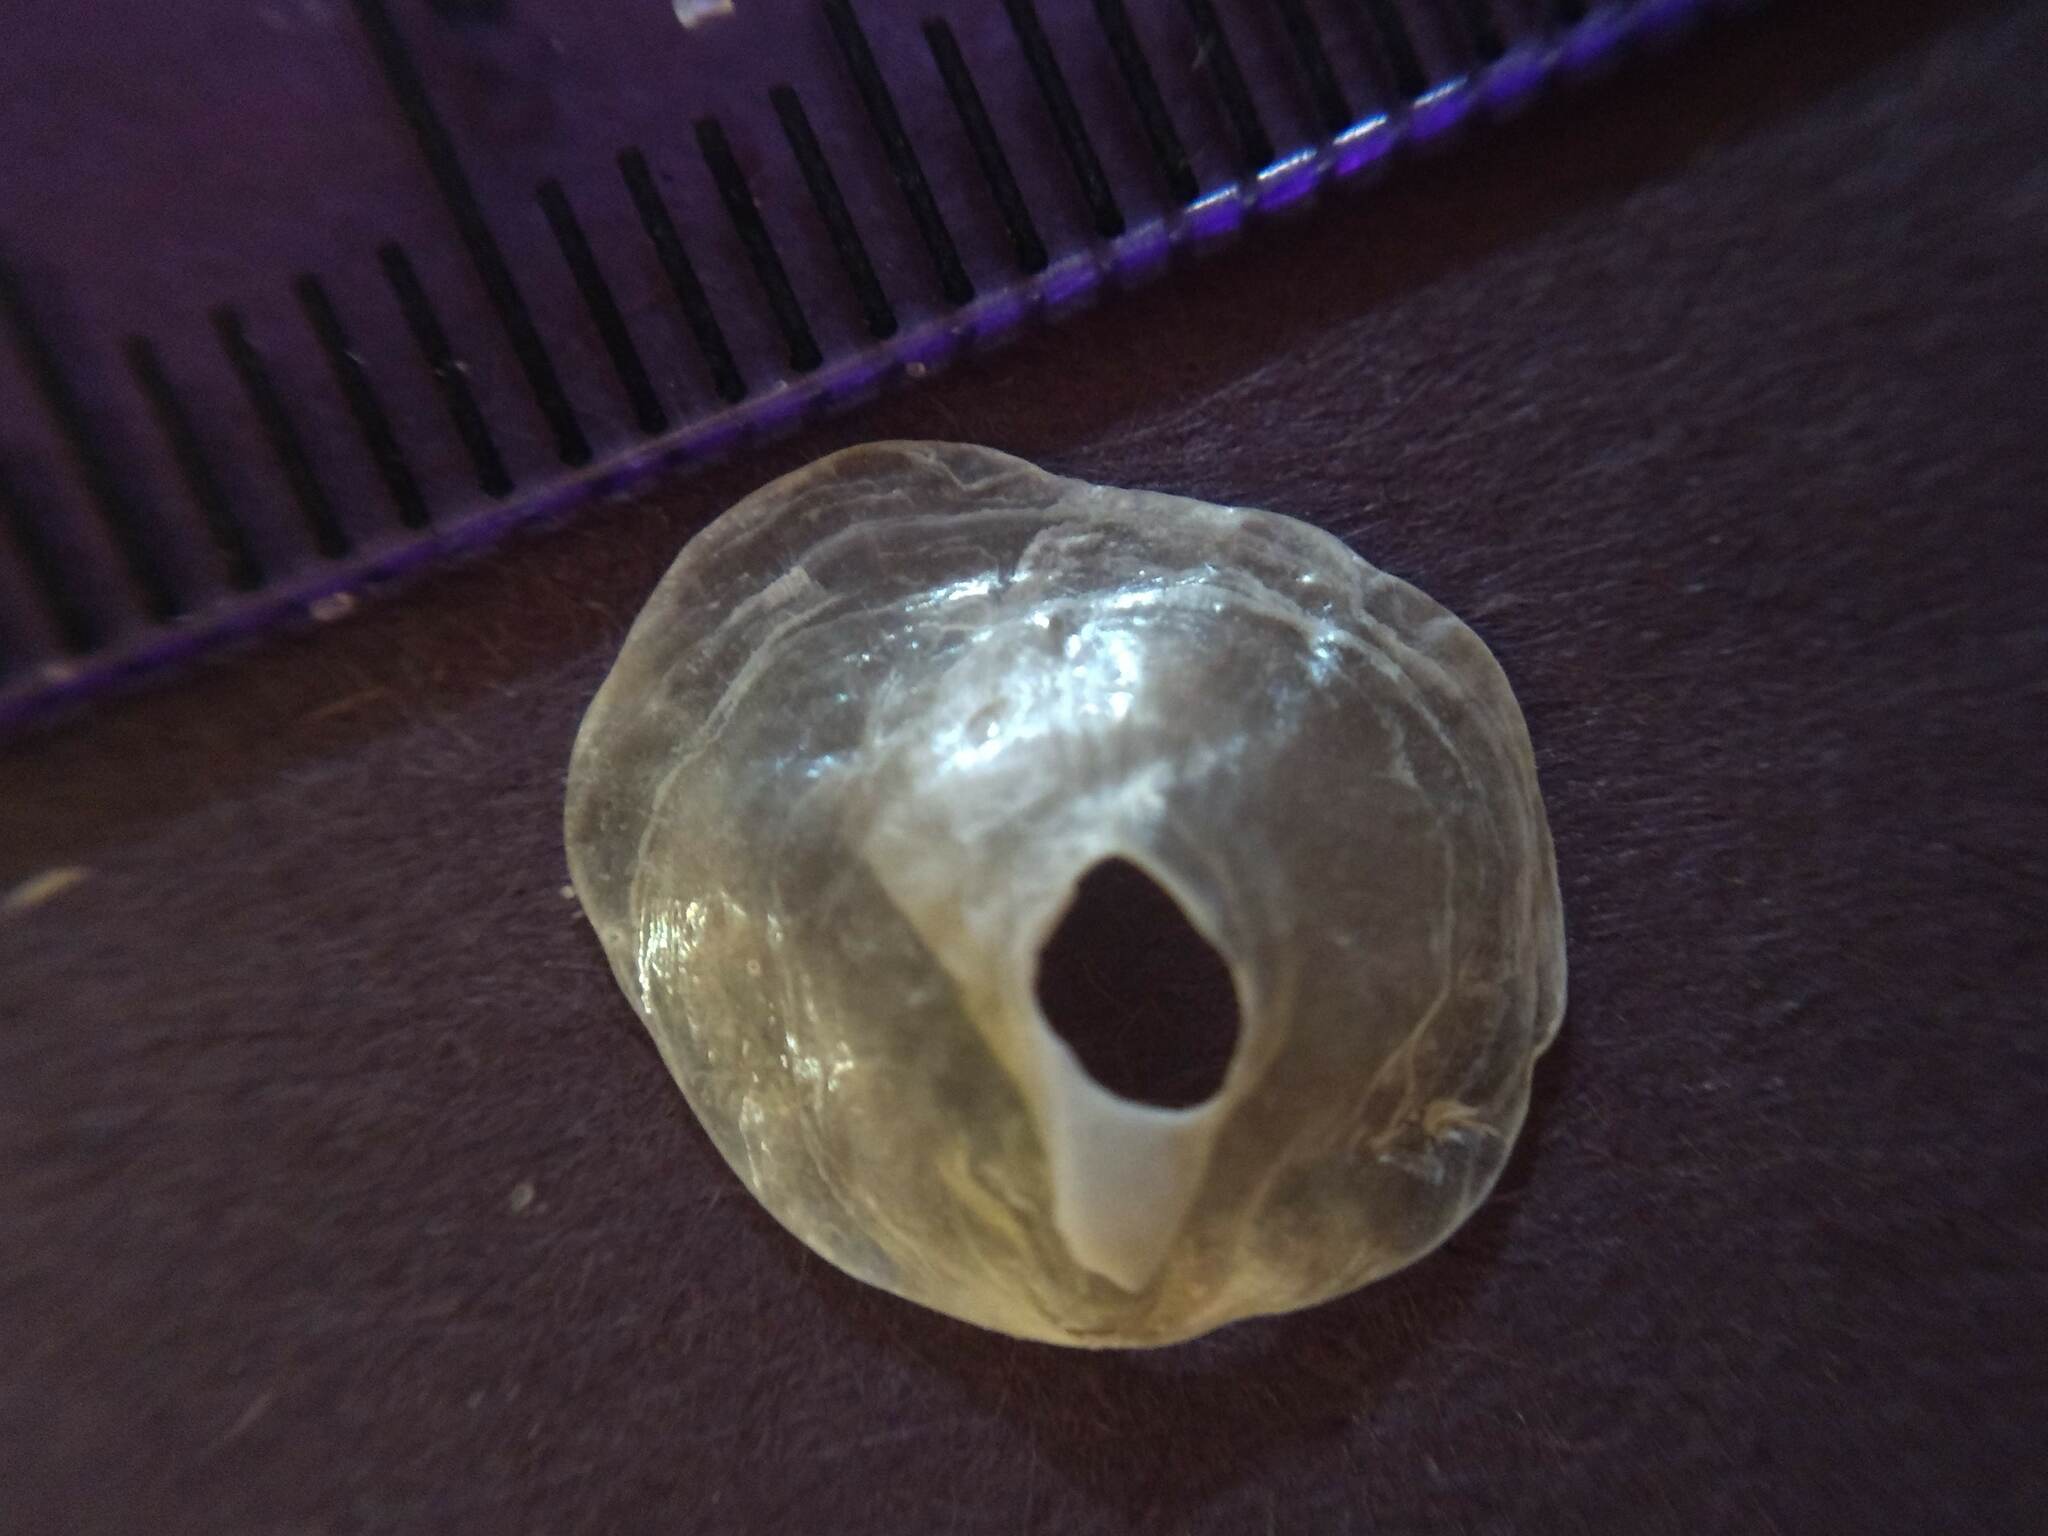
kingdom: Animalia
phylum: Mollusca
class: Bivalvia
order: Pectinida
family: Anomiidae
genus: Anomia
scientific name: Anomia simplex
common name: Common jingle shell
